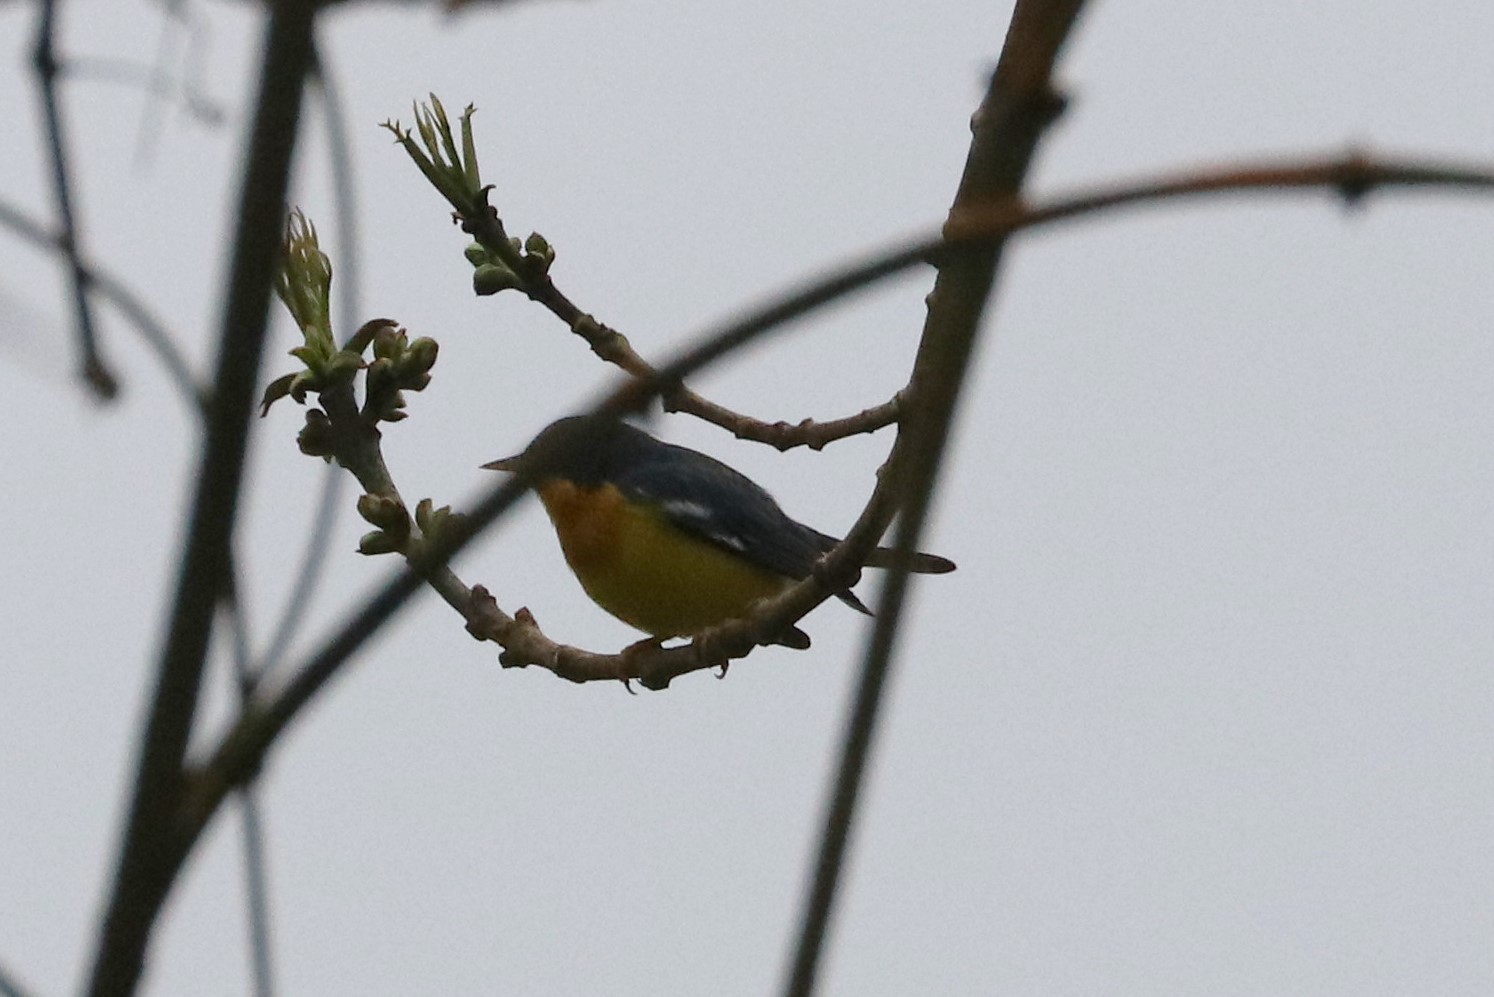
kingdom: Animalia
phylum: Chordata
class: Aves
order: Passeriformes
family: Parulidae
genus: Setophaga
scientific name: Setophaga pitiayumi
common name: Tropical parula
